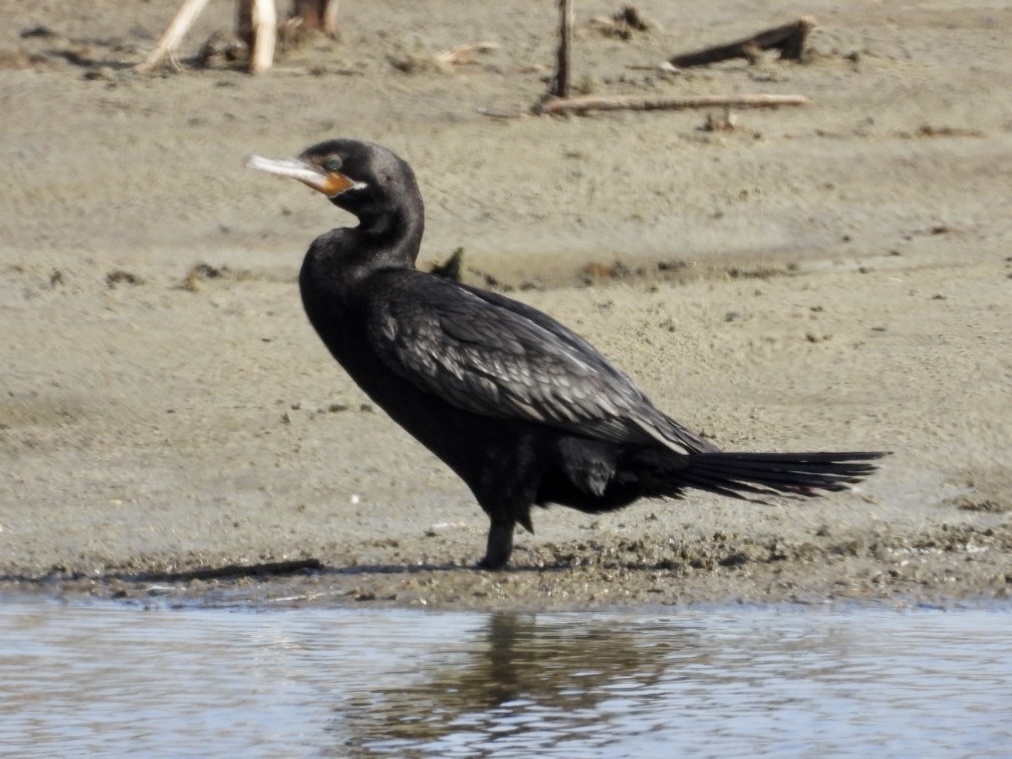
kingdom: Animalia
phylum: Chordata
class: Aves
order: Suliformes
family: Phalacrocoracidae
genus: Phalacrocorax
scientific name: Phalacrocorax brasilianus
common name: Neotropic cormorant
